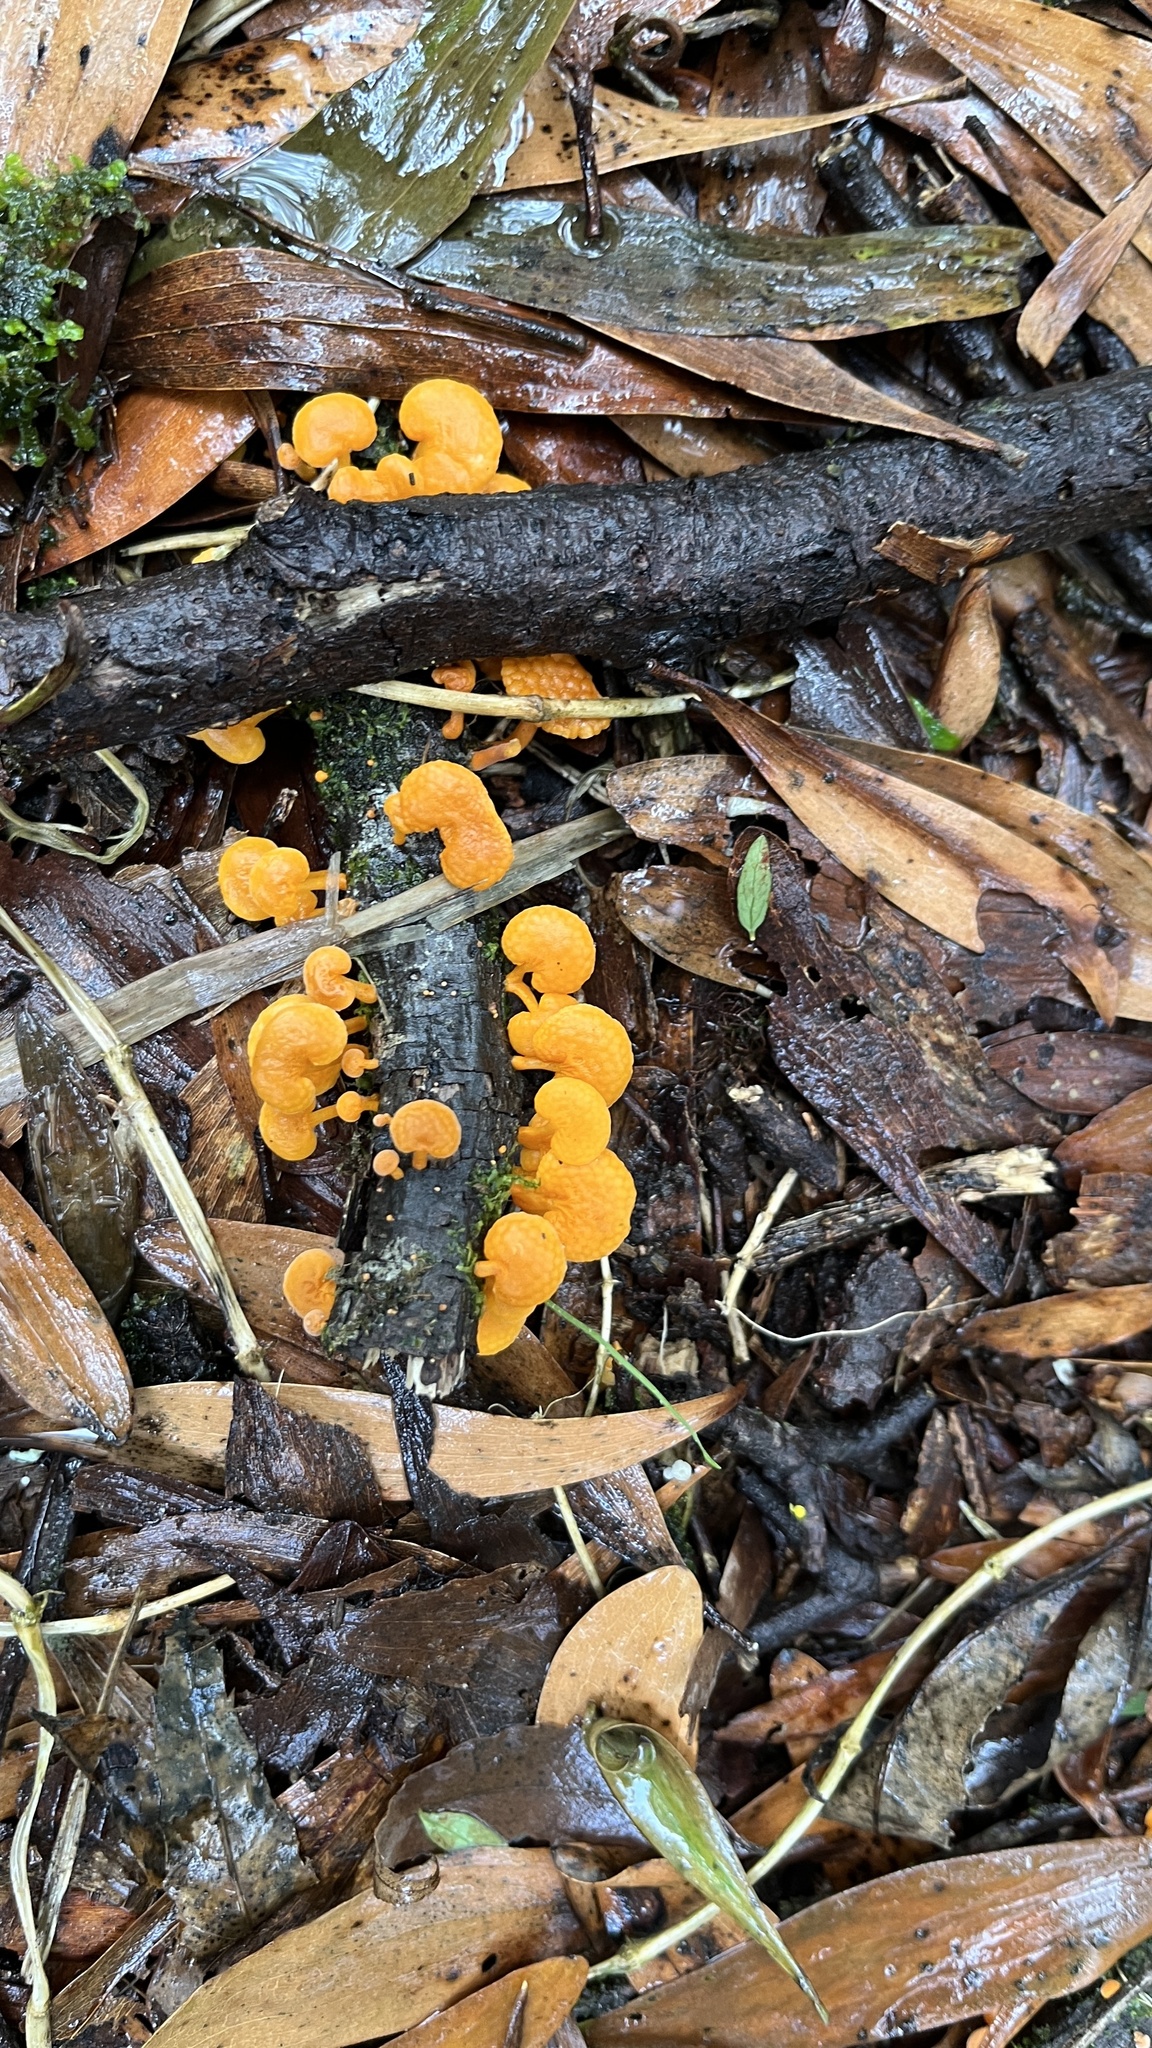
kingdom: Fungi
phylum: Basidiomycota
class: Agaricomycetes
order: Agaricales
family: Mycenaceae
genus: Favolaschia
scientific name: Favolaschia claudopus
